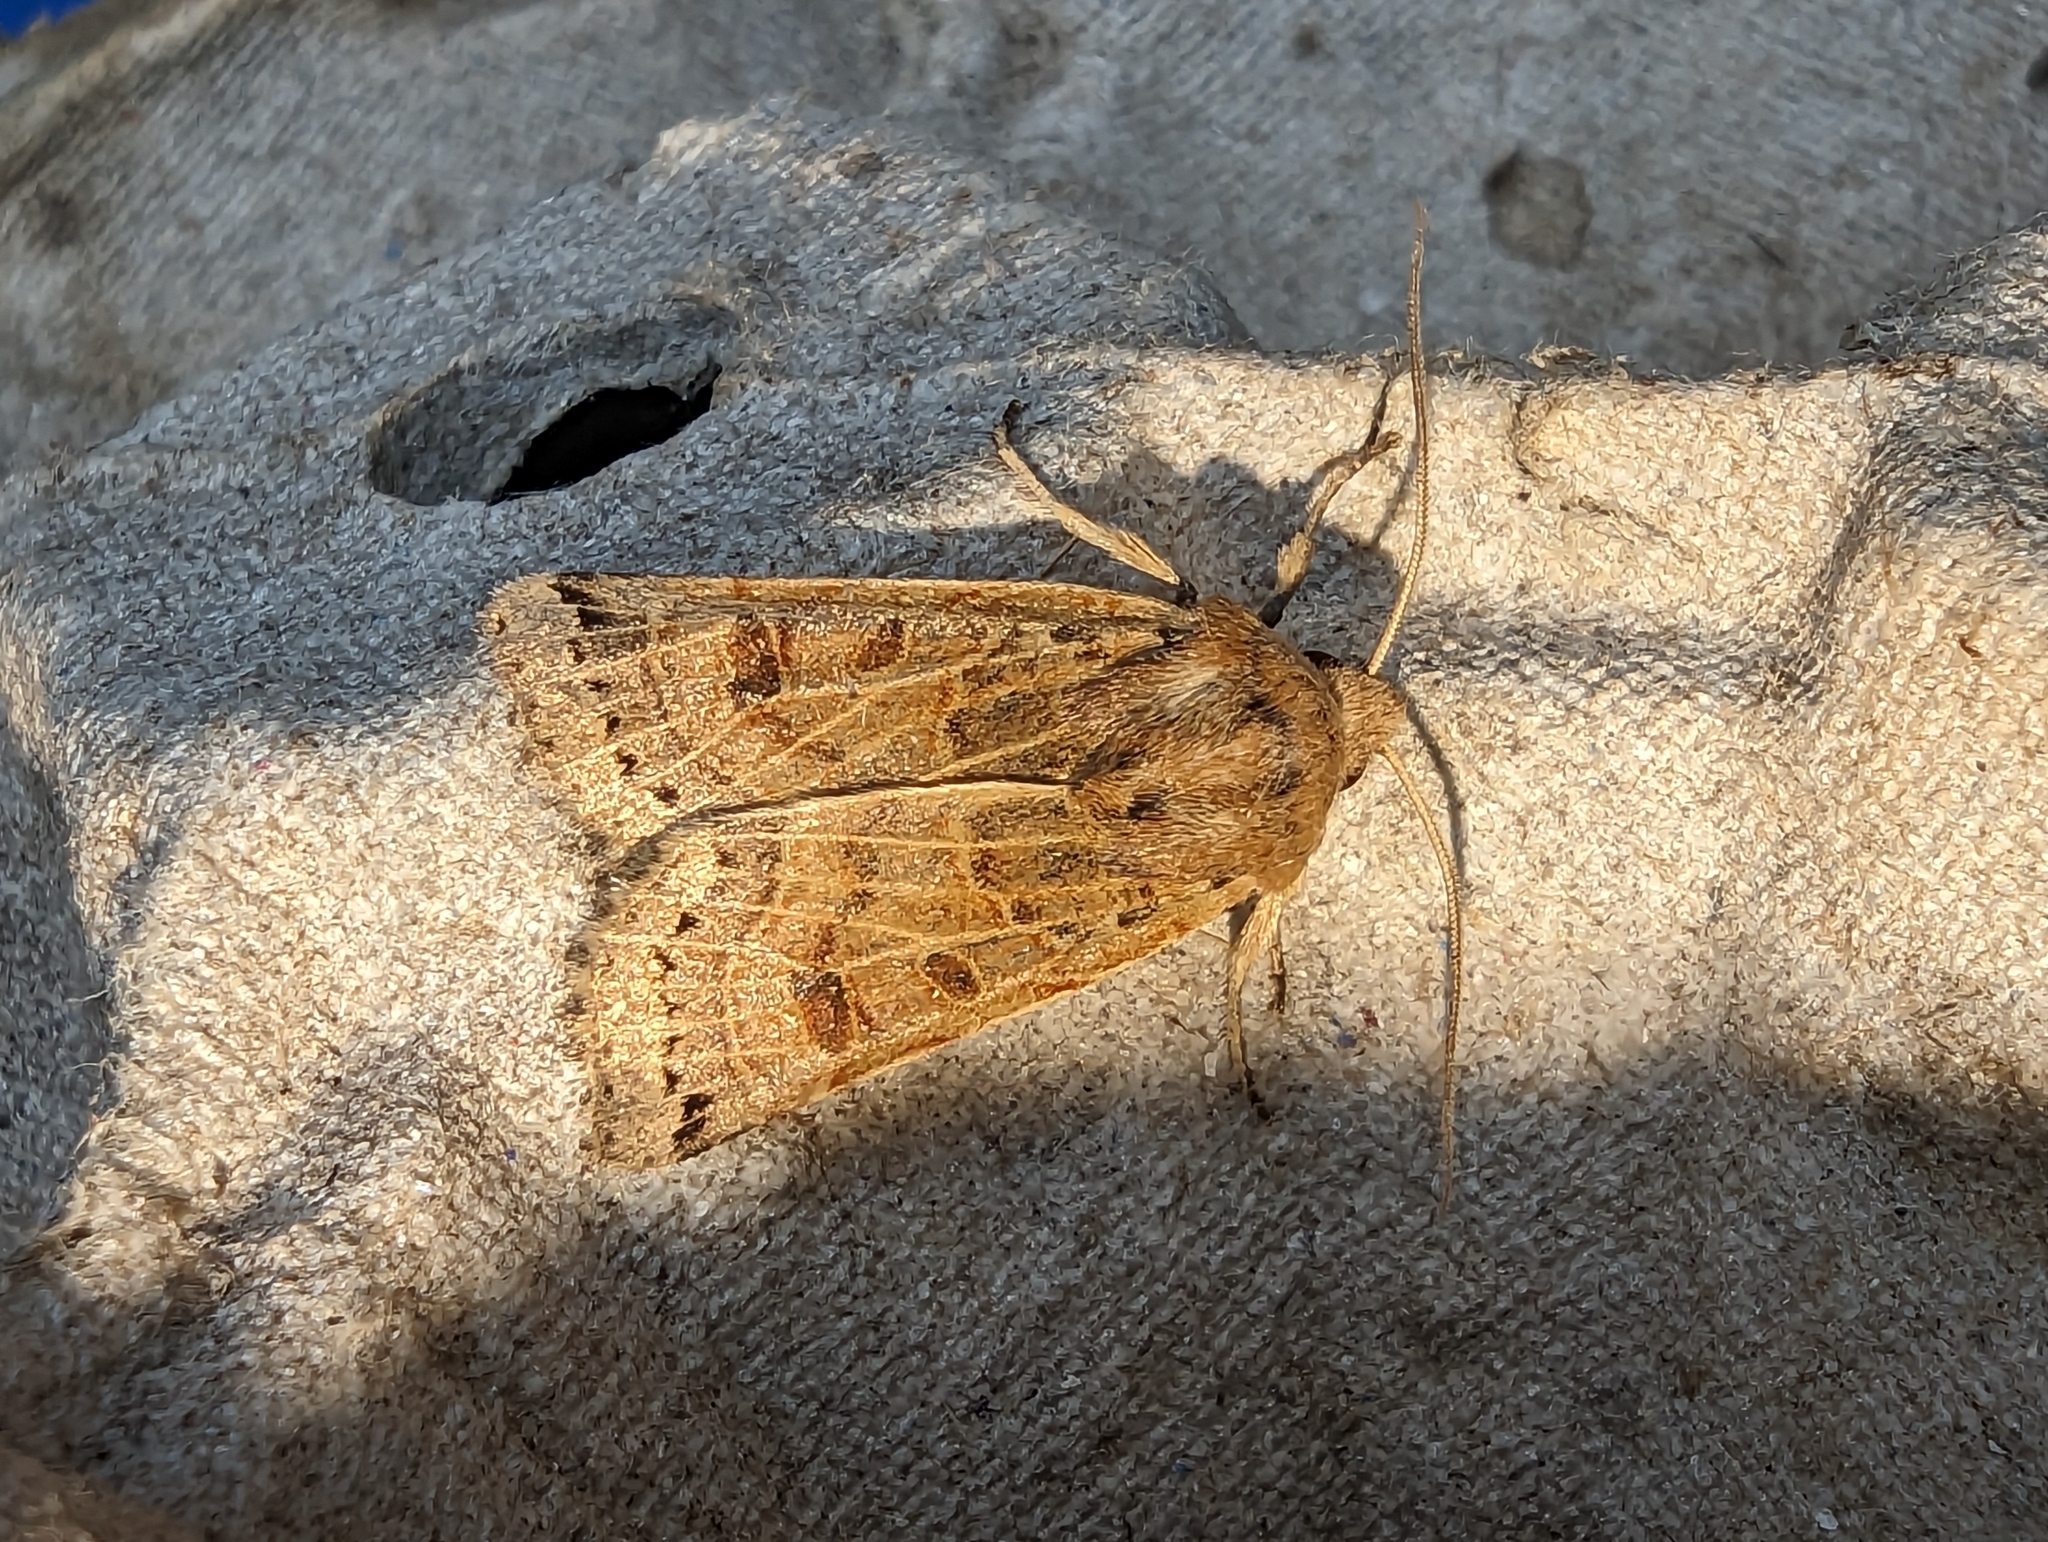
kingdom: Animalia
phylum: Arthropoda
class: Insecta
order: Lepidoptera
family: Noctuidae
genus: Agrochola
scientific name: Agrochola lunosa
